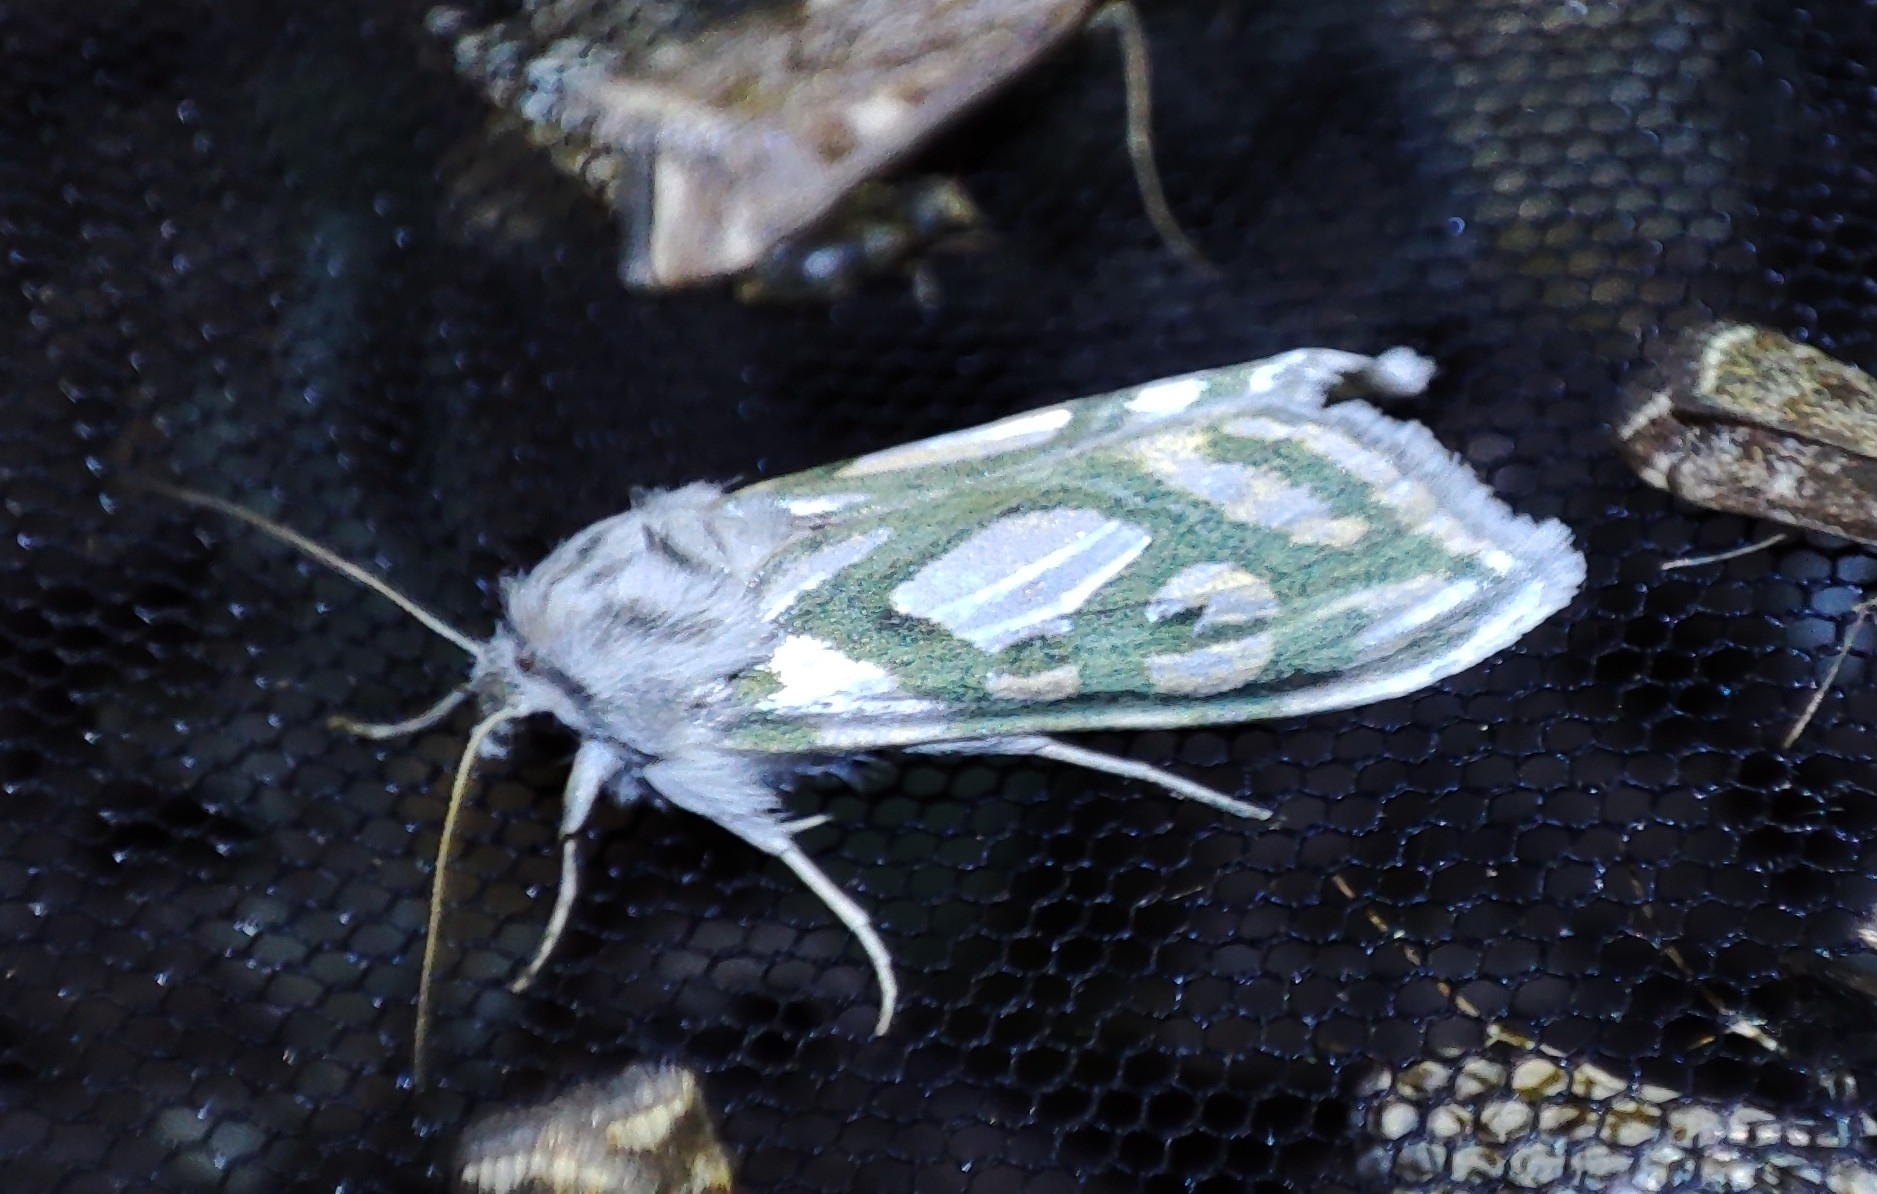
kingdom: Animalia
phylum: Arthropoda
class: Insecta
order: Lepidoptera
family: Noctuidae
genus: Cucullia
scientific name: Cucullia argentea
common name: Green silver-spangled shark
